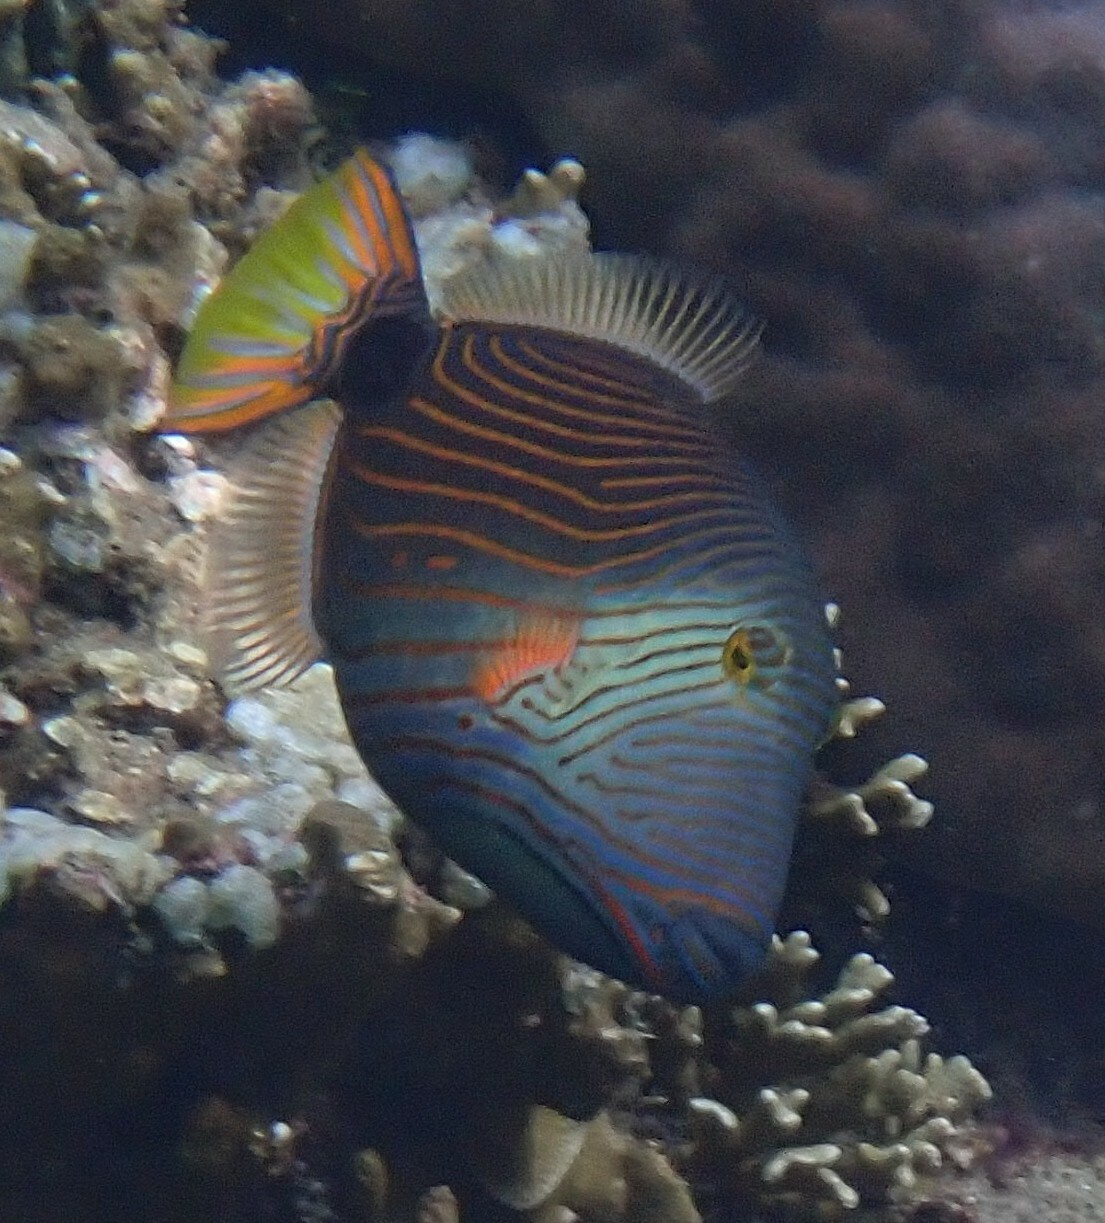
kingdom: Animalia
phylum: Chordata
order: Tetraodontiformes
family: Balistidae
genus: Balistapus
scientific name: Balistapus undulatus
